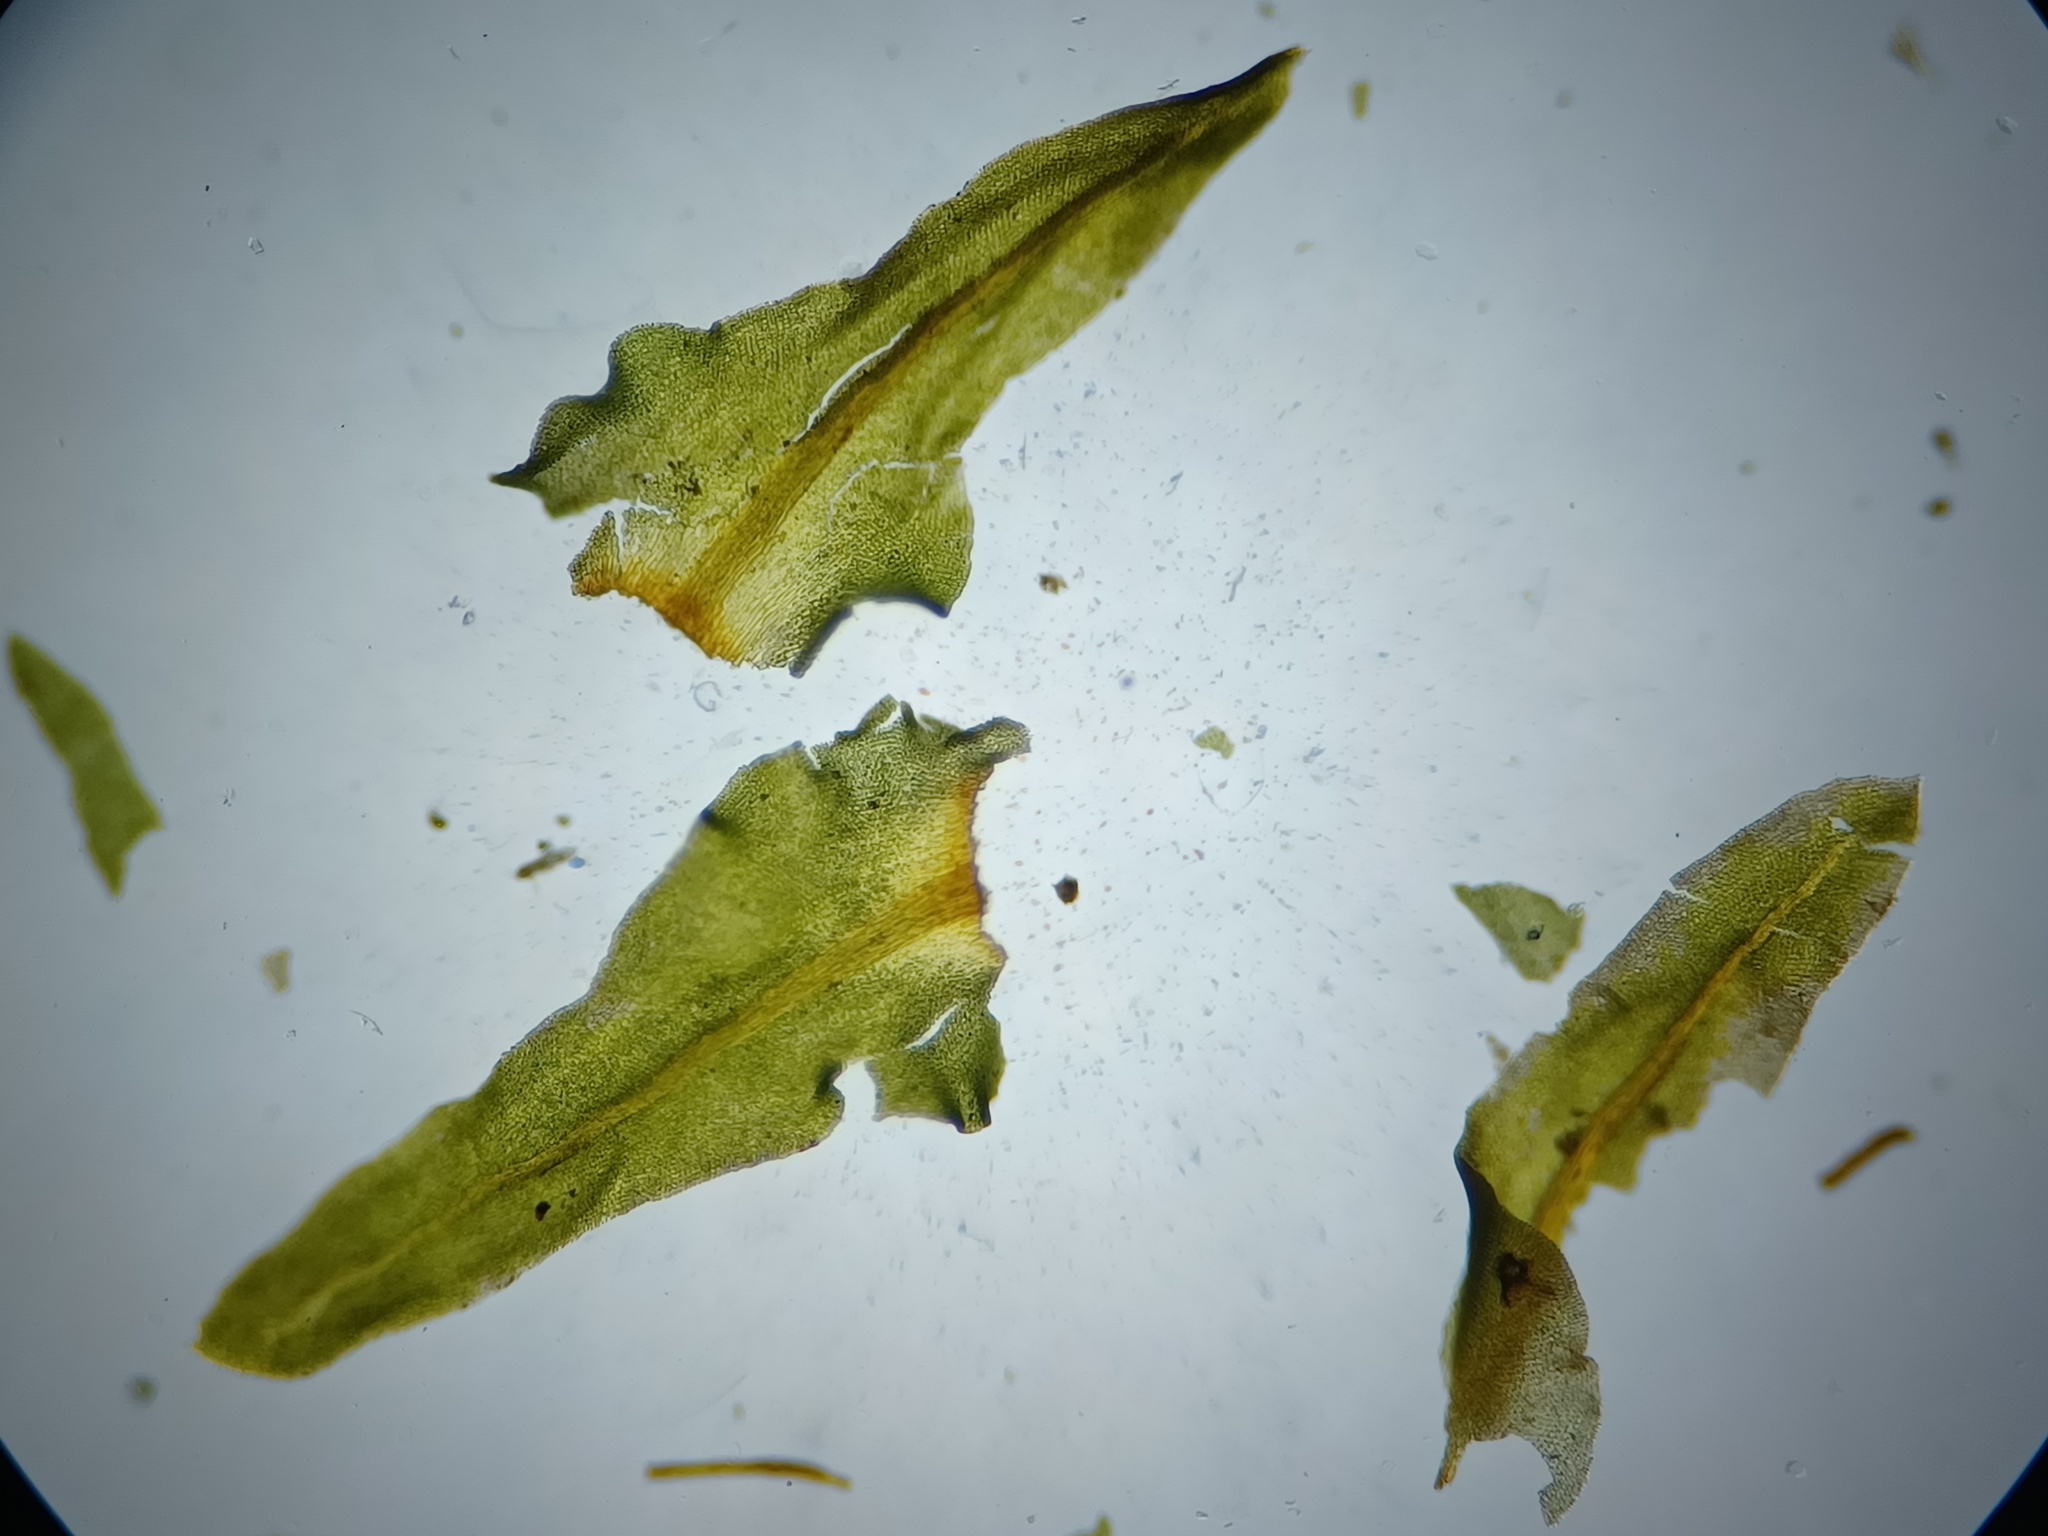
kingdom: Plantae
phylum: Bryophyta
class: Bryopsida
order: Hypnales
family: Anomodontaceae
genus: Anomodontopsis
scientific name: Anomodontopsis rugelii
